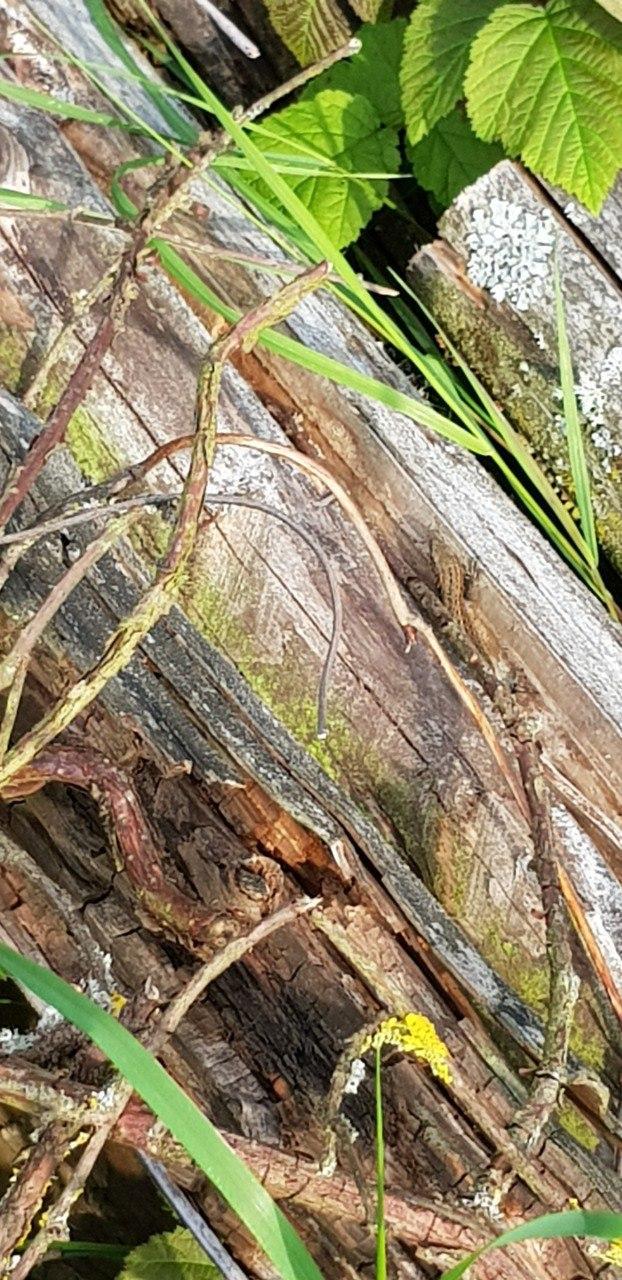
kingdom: Animalia
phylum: Chordata
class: Squamata
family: Lacertidae
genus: Zootoca
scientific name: Zootoca vivipara
